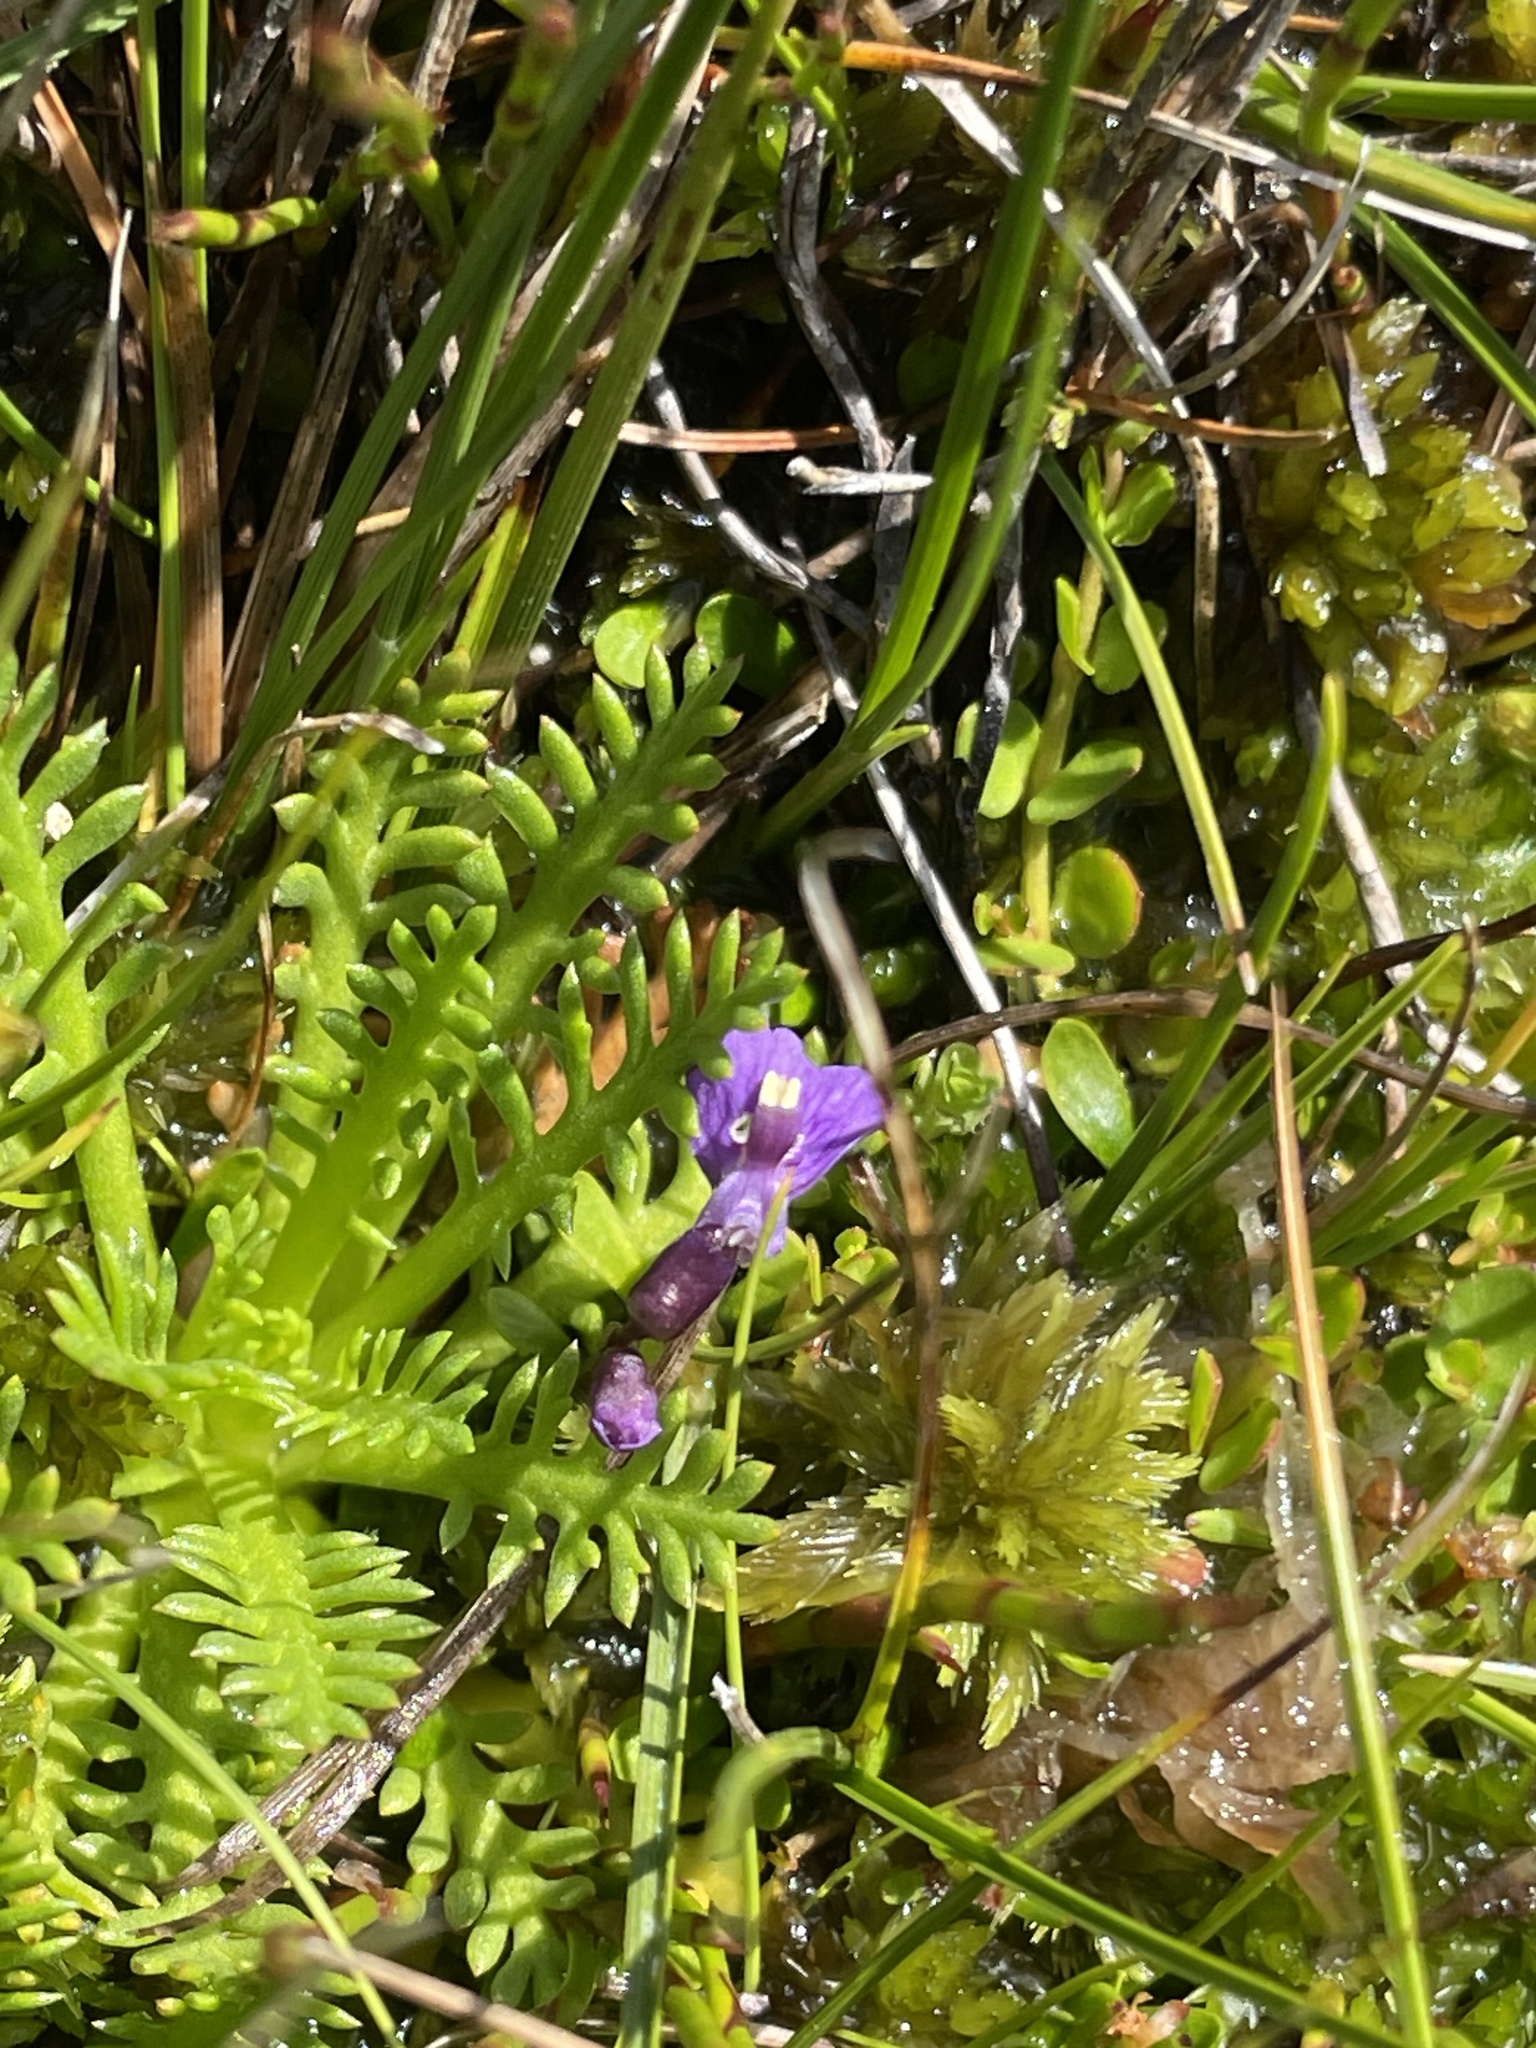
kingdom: Plantae
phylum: Tracheophyta
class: Magnoliopsida
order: Lamiales
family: Lentibulariaceae
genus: Utricularia
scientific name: Utricularia dichotoma
